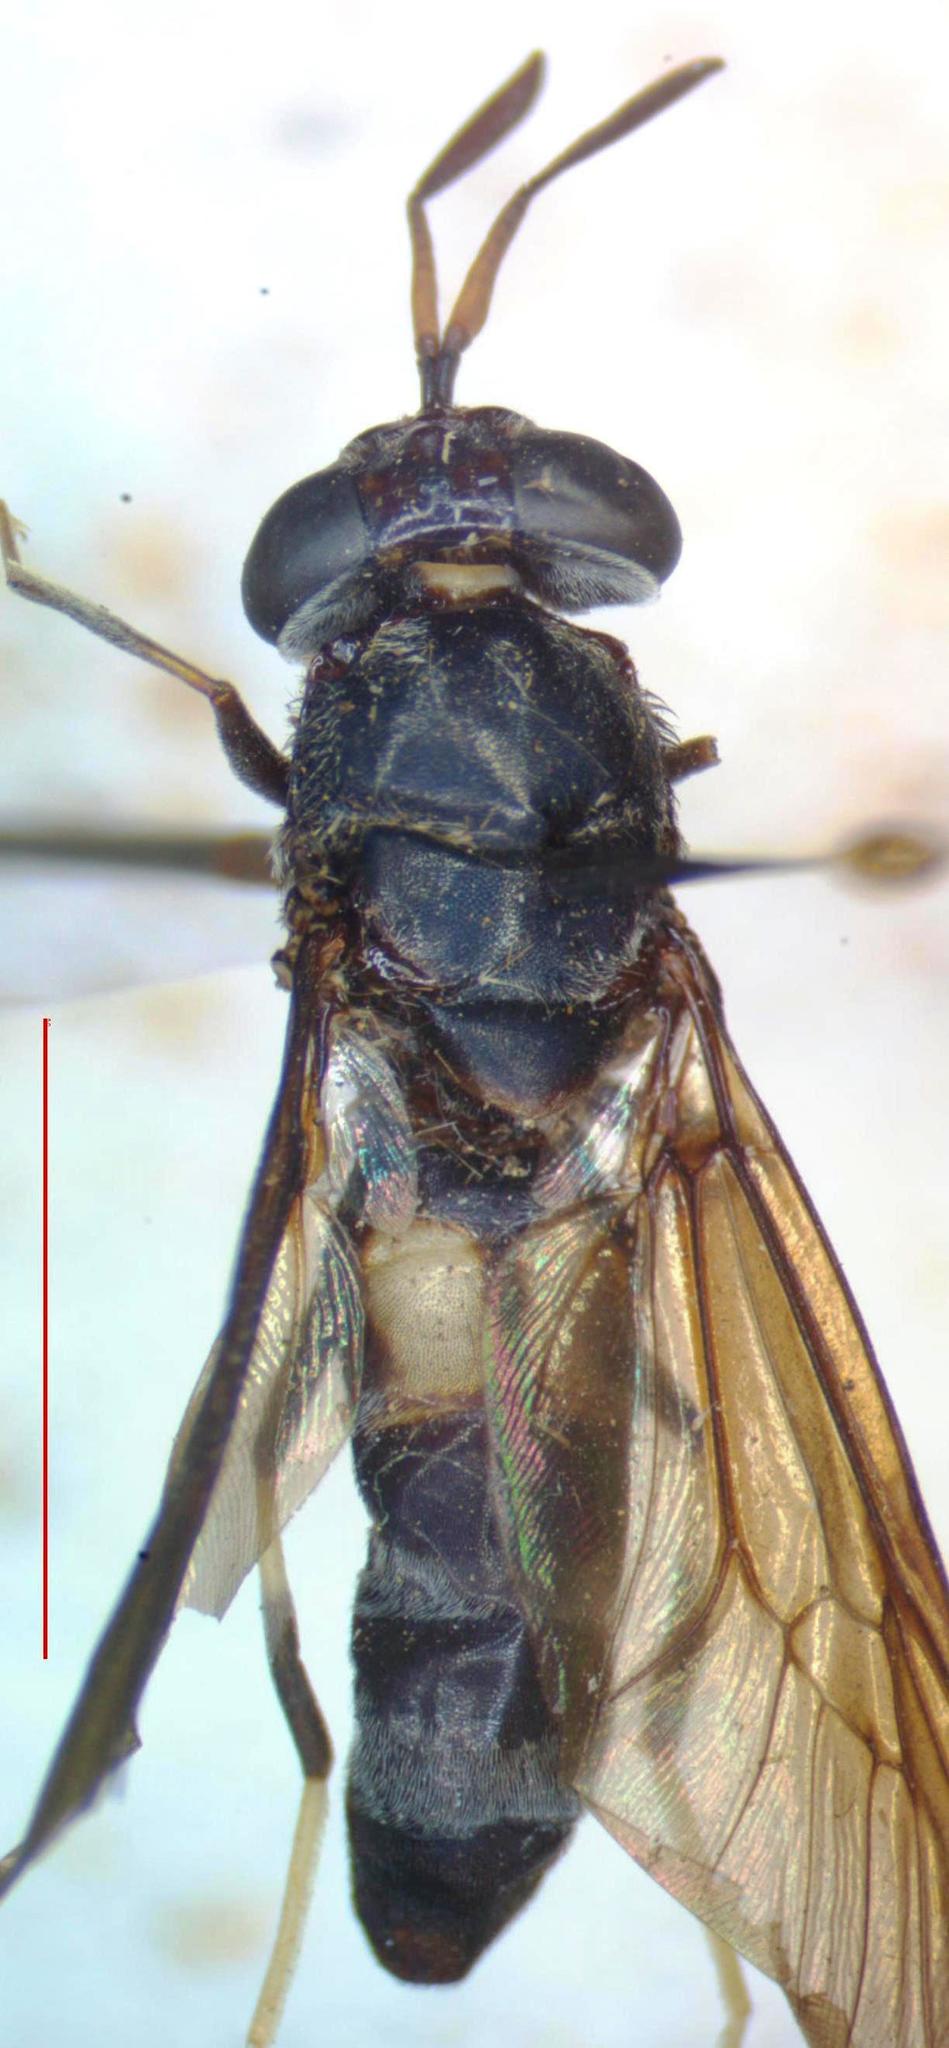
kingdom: Animalia
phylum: Arthropoda
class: Insecta
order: Diptera
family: Stratiomyidae
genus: Hermetia
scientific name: Hermetia illucens
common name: Black soldier fly
